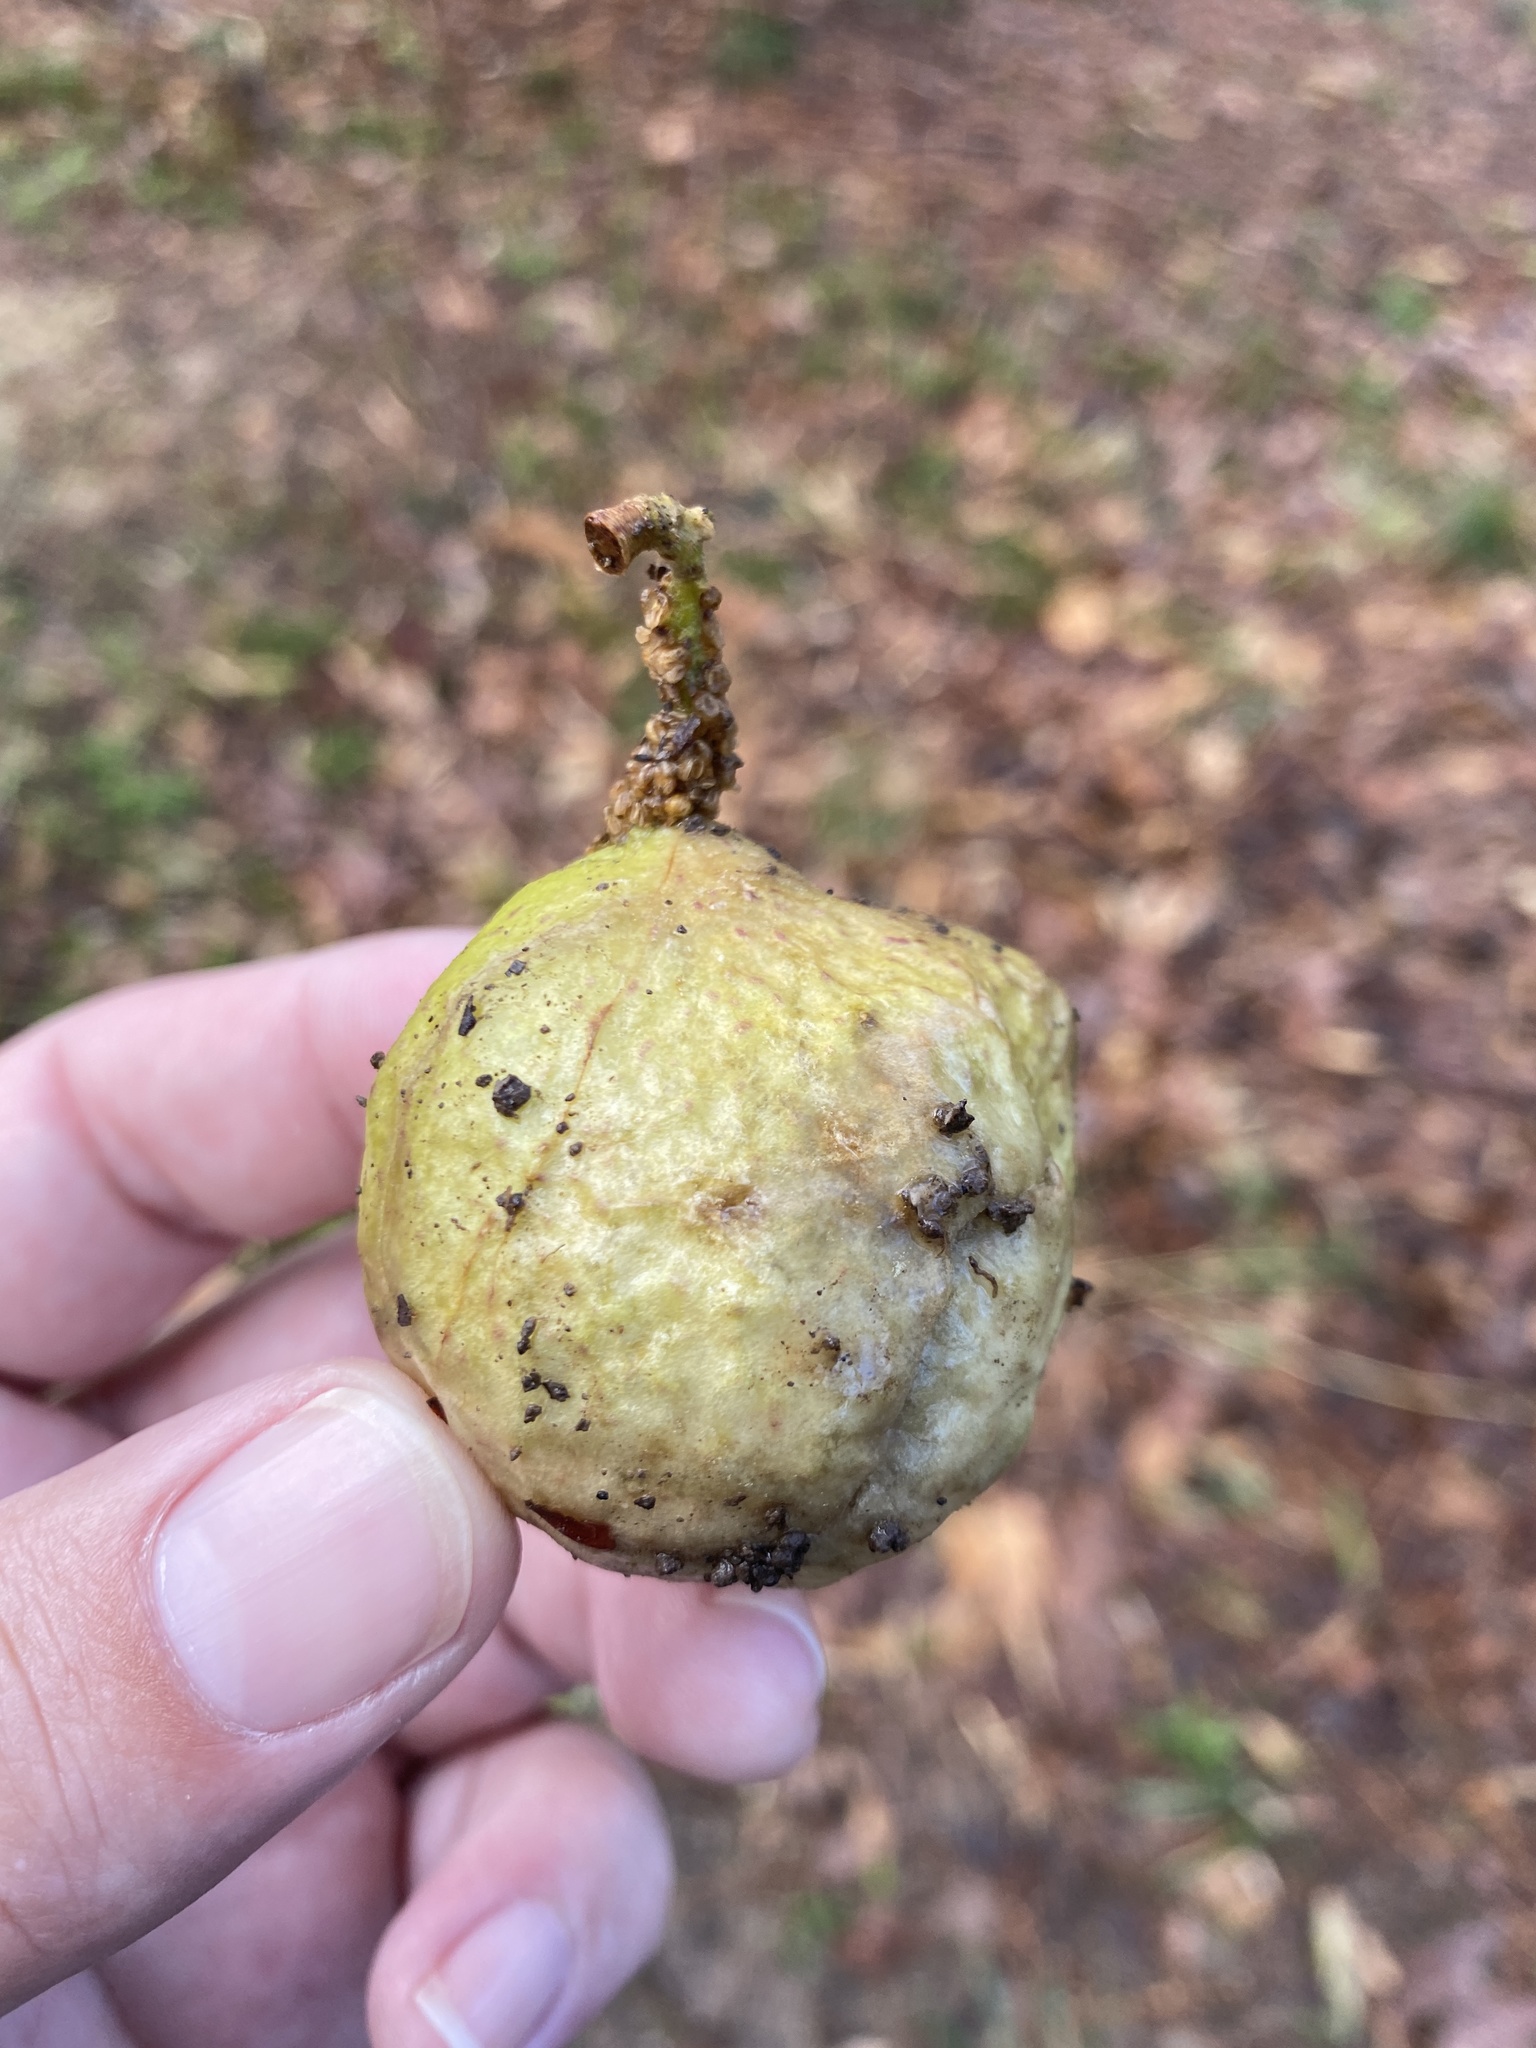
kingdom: Animalia
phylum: Arthropoda
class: Insecta
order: Hymenoptera
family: Cynipidae
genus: Amphibolips
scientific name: Amphibolips
